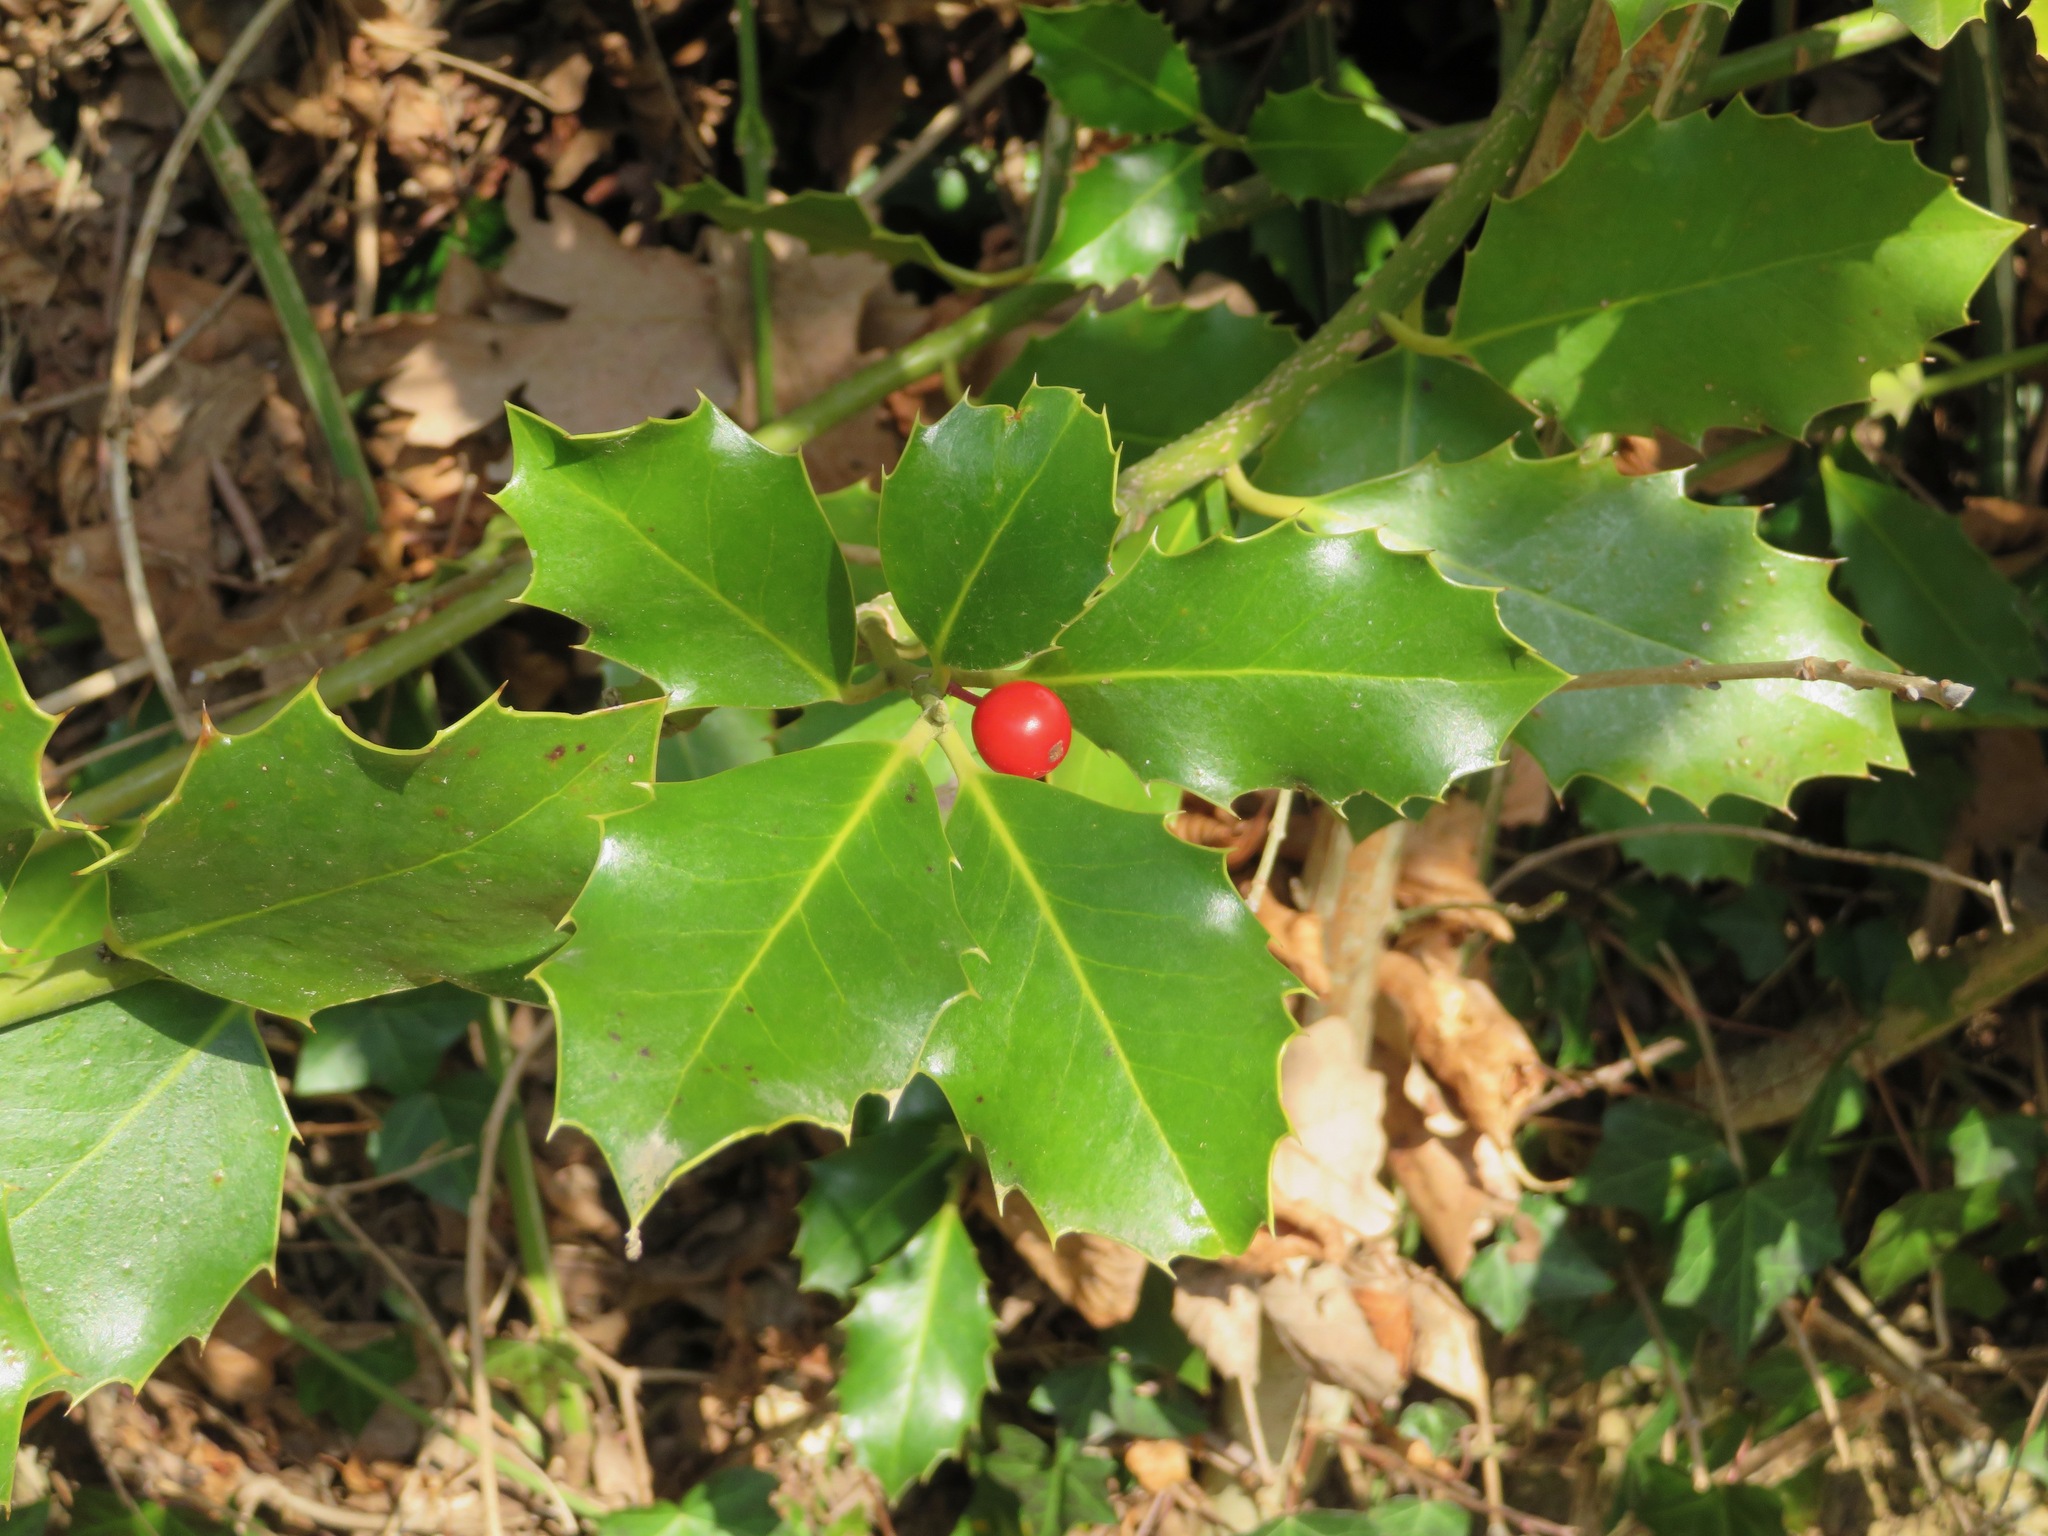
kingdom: Plantae
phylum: Tracheophyta
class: Magnoliopsida
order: Aquifoliales
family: Aquifoliaceae
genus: Ilex
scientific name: Ilex aquifolium
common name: English holly
